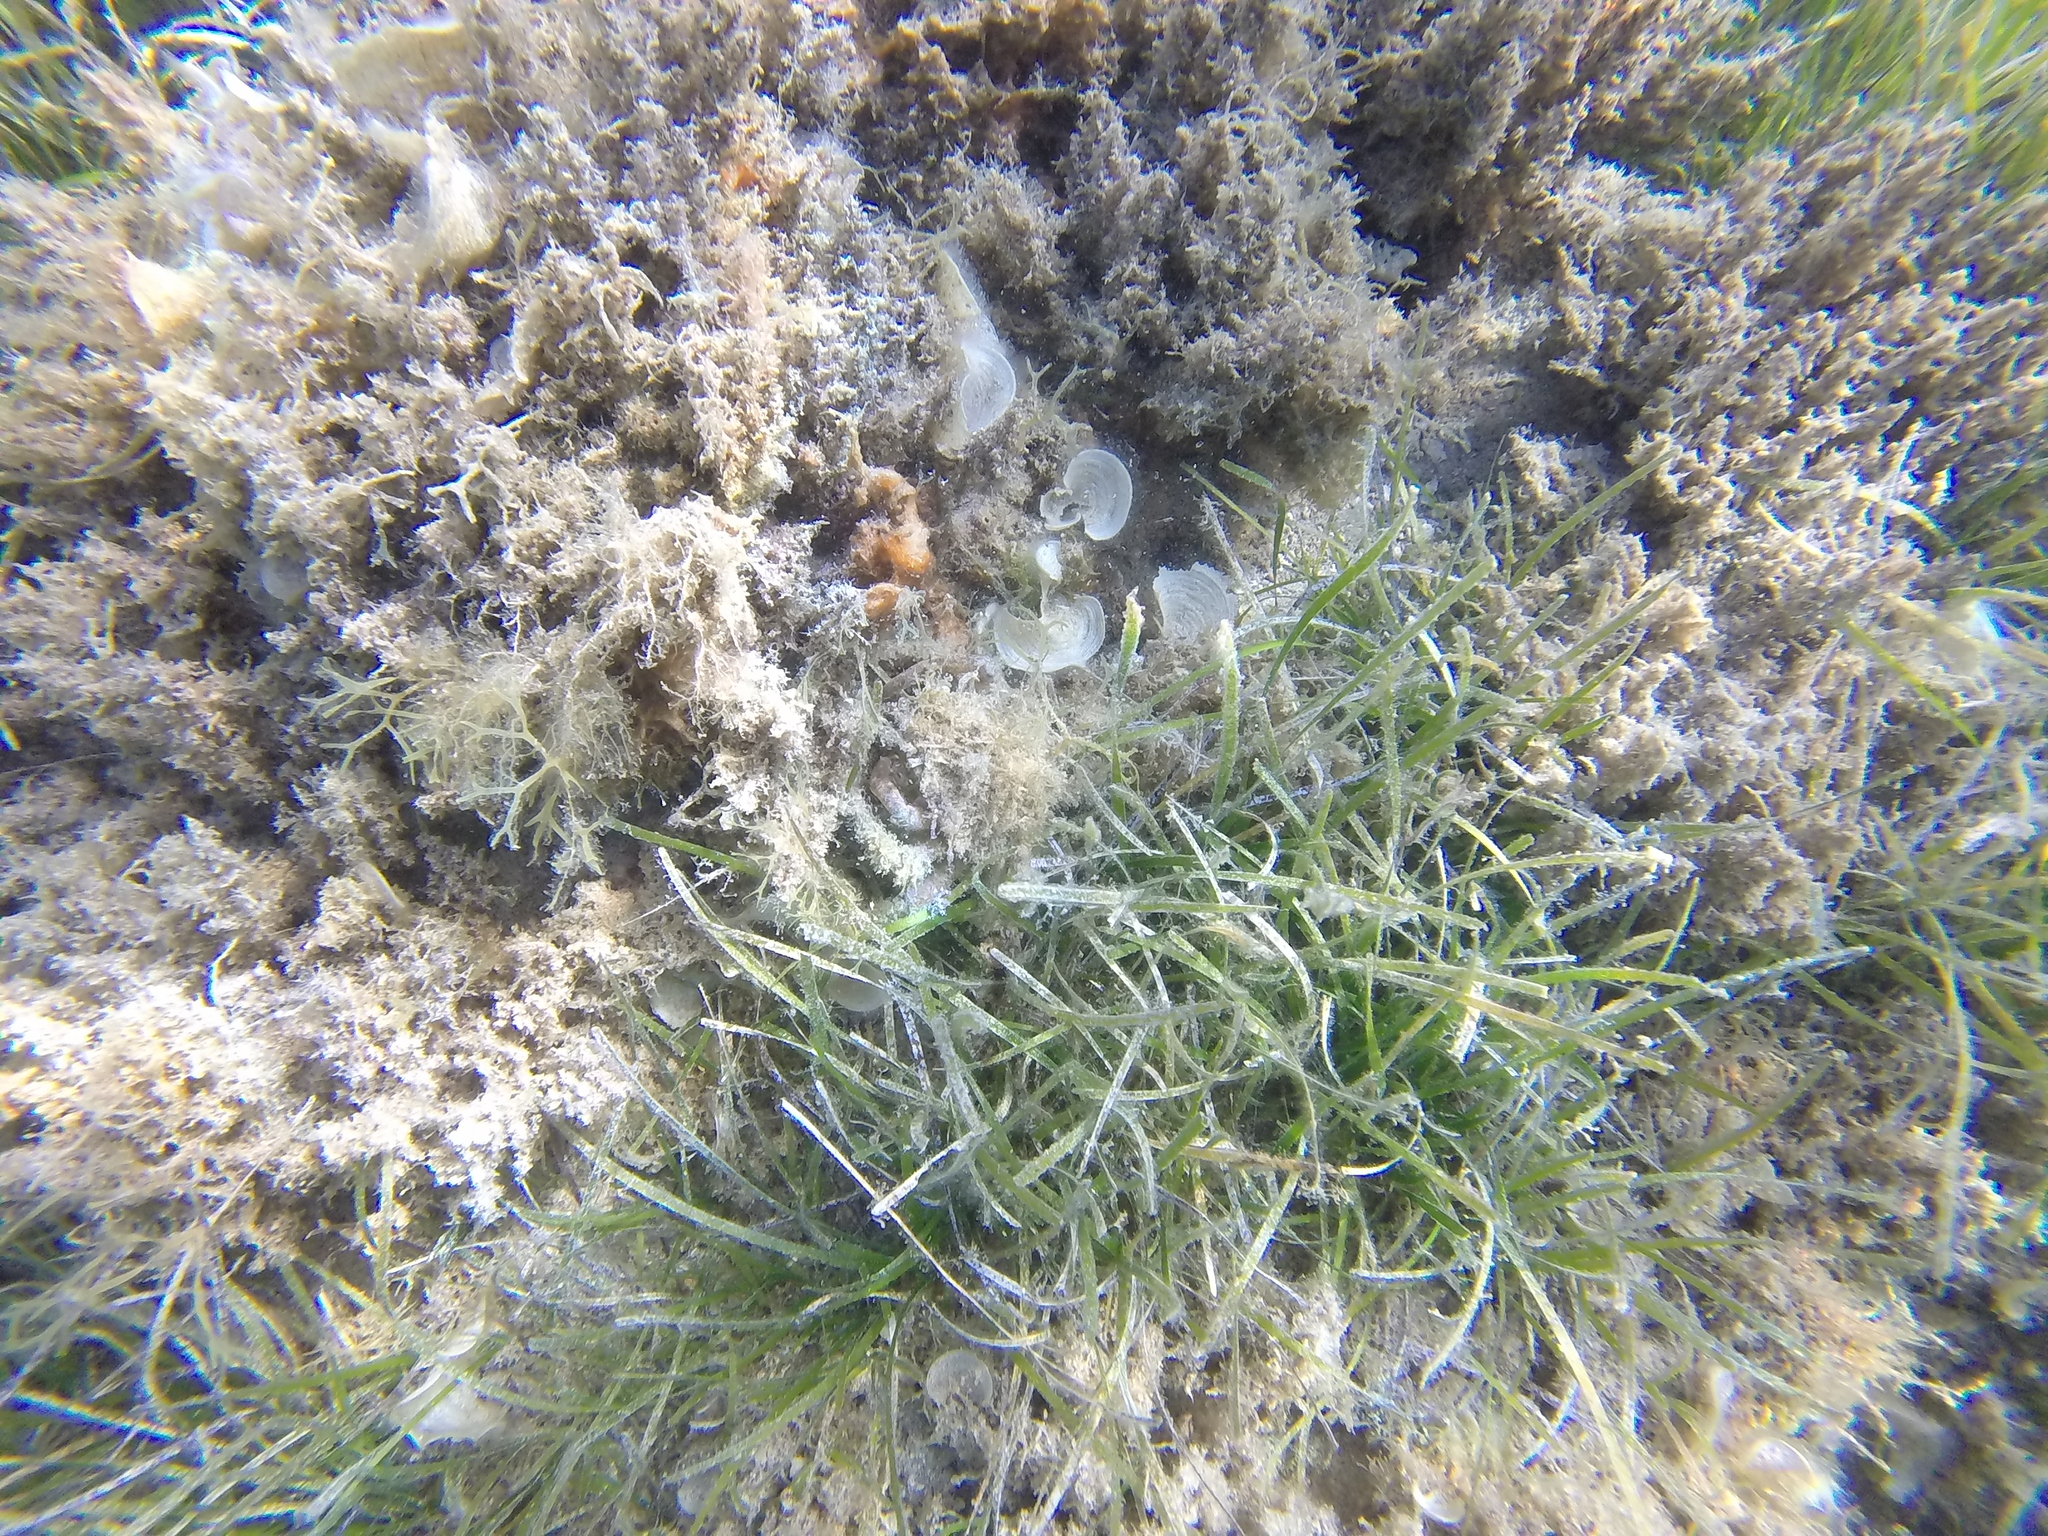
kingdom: Animalia
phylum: Arthropoda
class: Malacostraca
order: Decapoda
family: Majidae
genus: Maja
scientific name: Maja crispata
